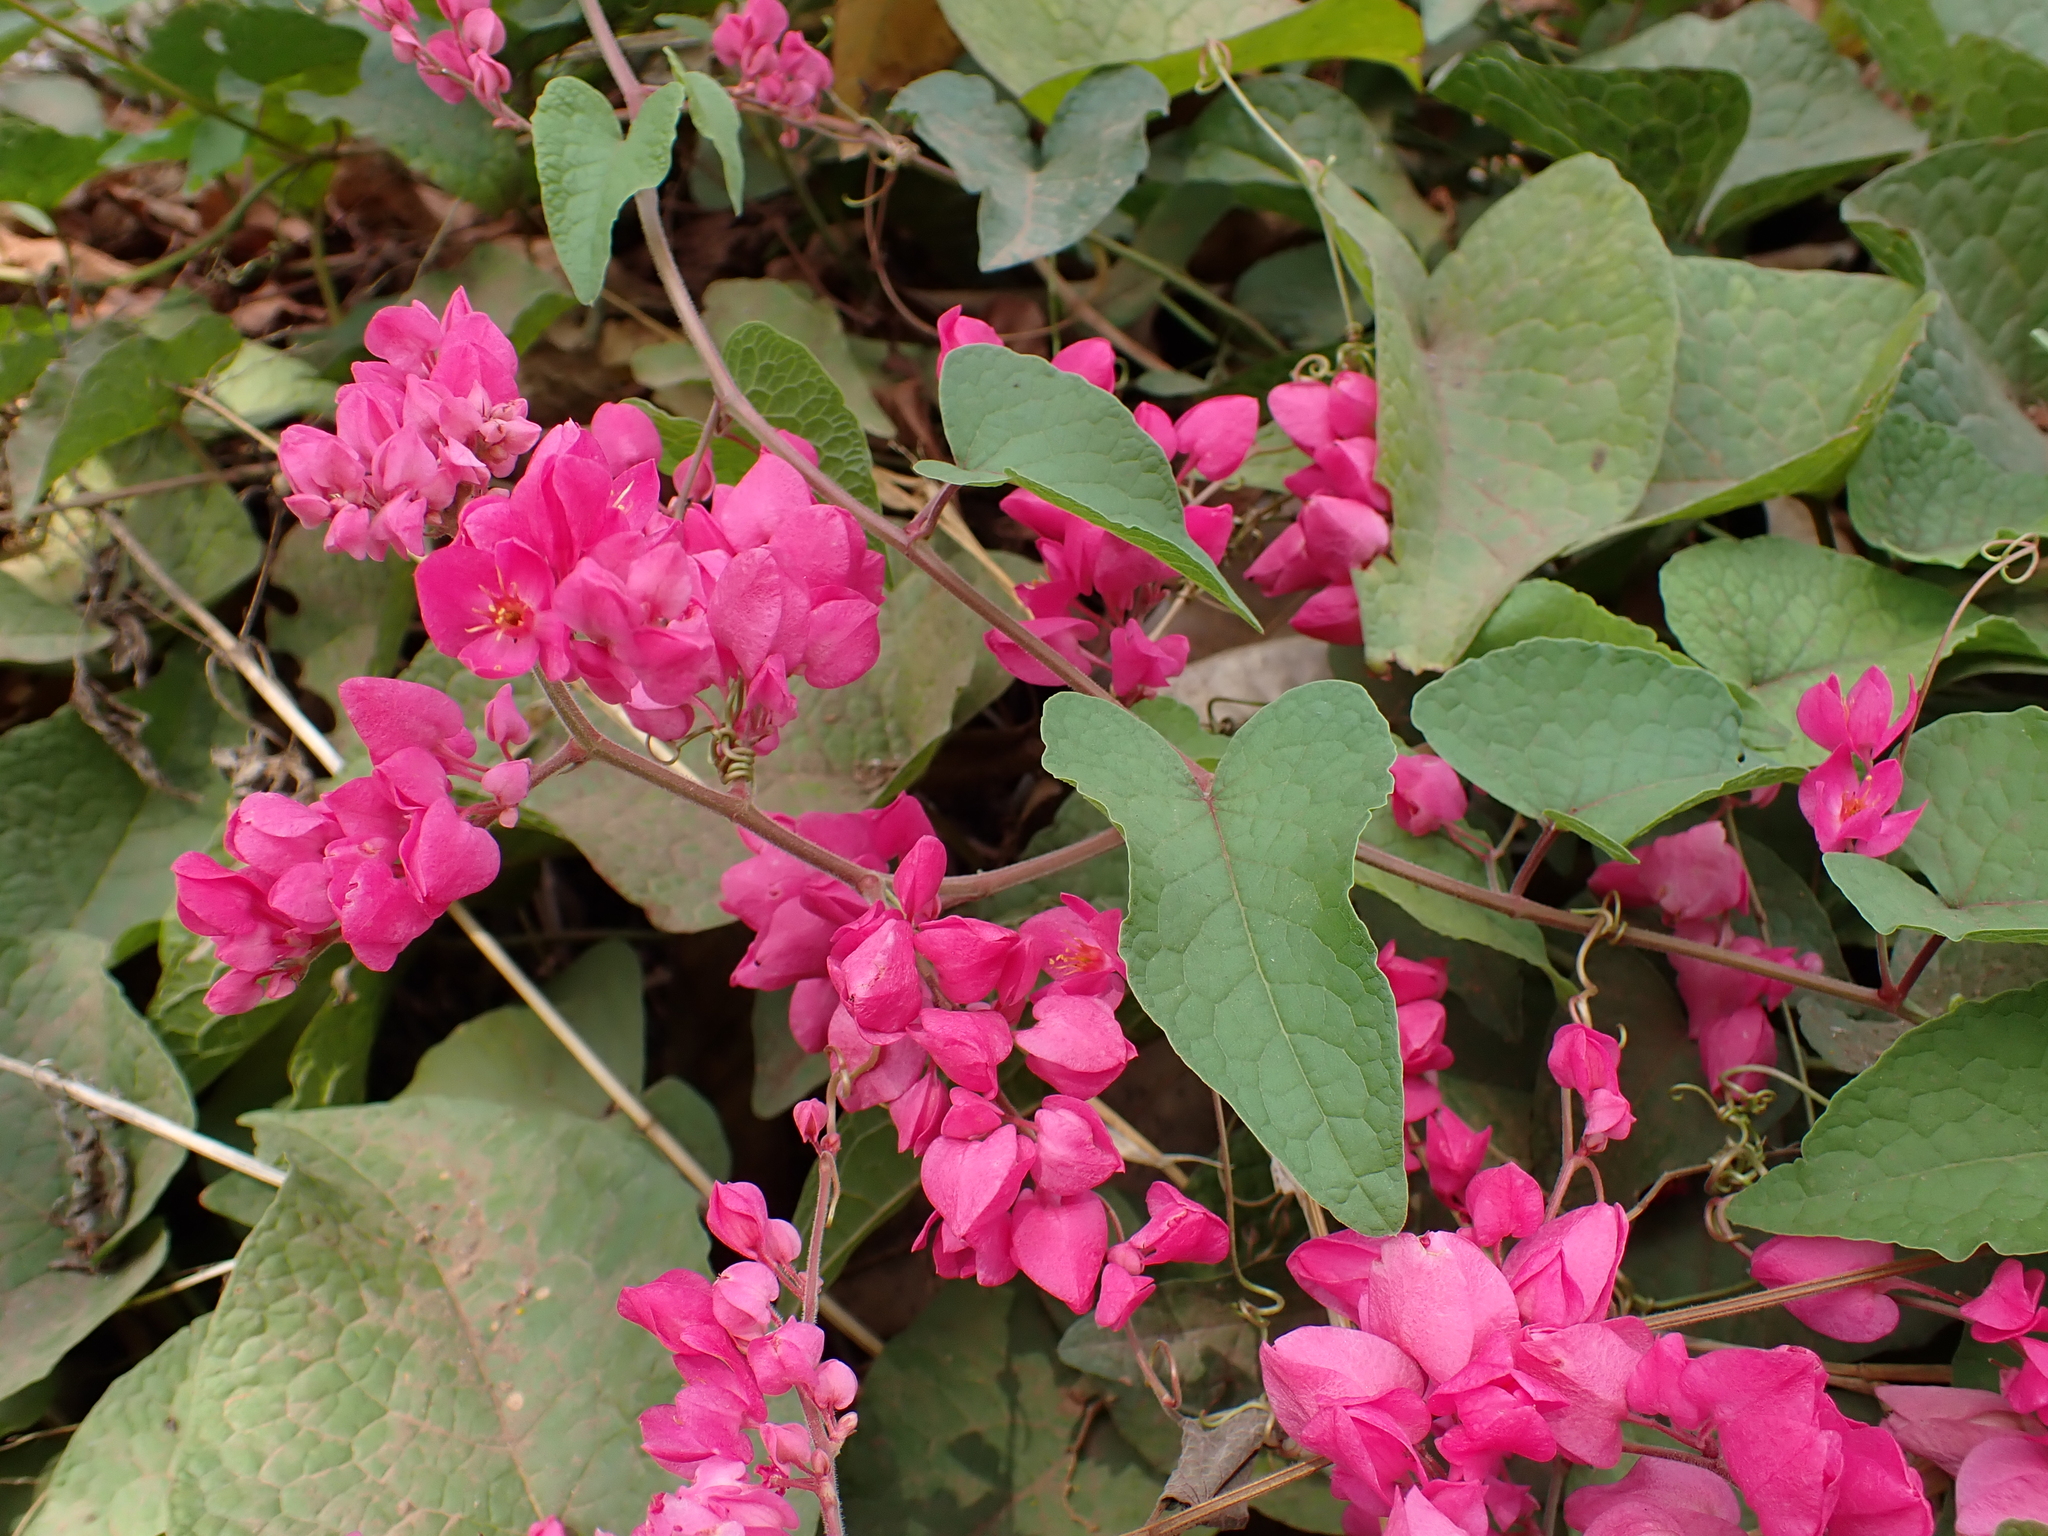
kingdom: Plantae
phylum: Tracheophyta
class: Magnoliopsida
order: Caryophyllales
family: Polygonaceae
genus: Antigonon
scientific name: Antigonon leptopus
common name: Coral vine
